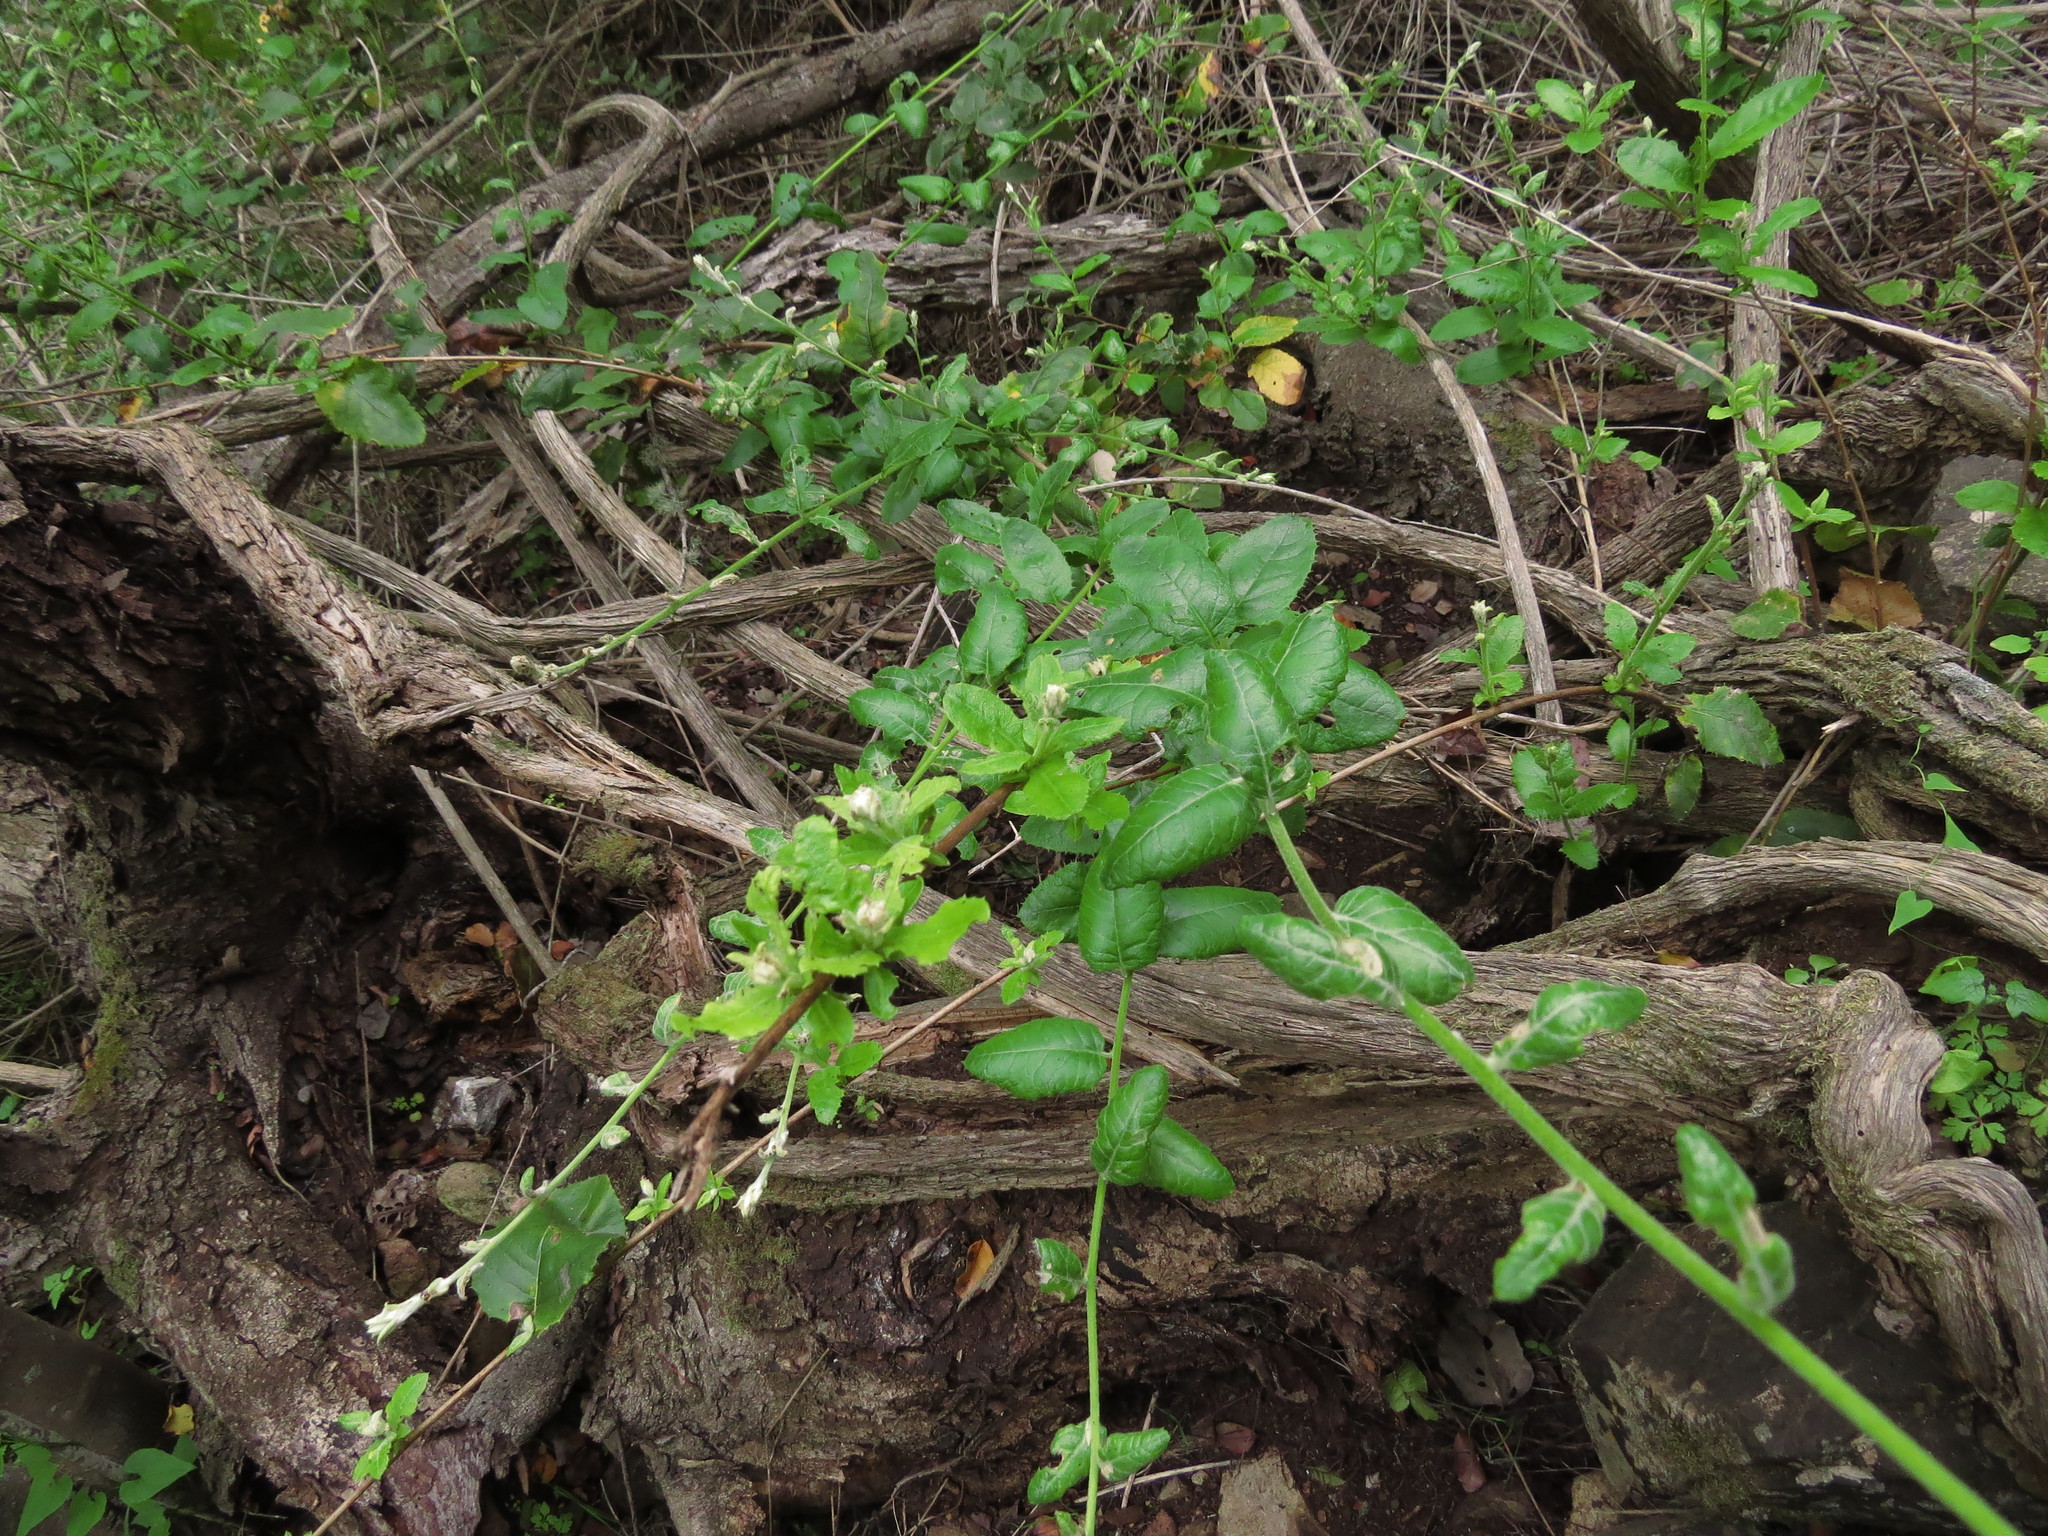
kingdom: Plantae
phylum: Tracheophyta
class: Magnoliopsida
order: Asterales
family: Asteraceae
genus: Proustia
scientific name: Proustia pyrifolia
